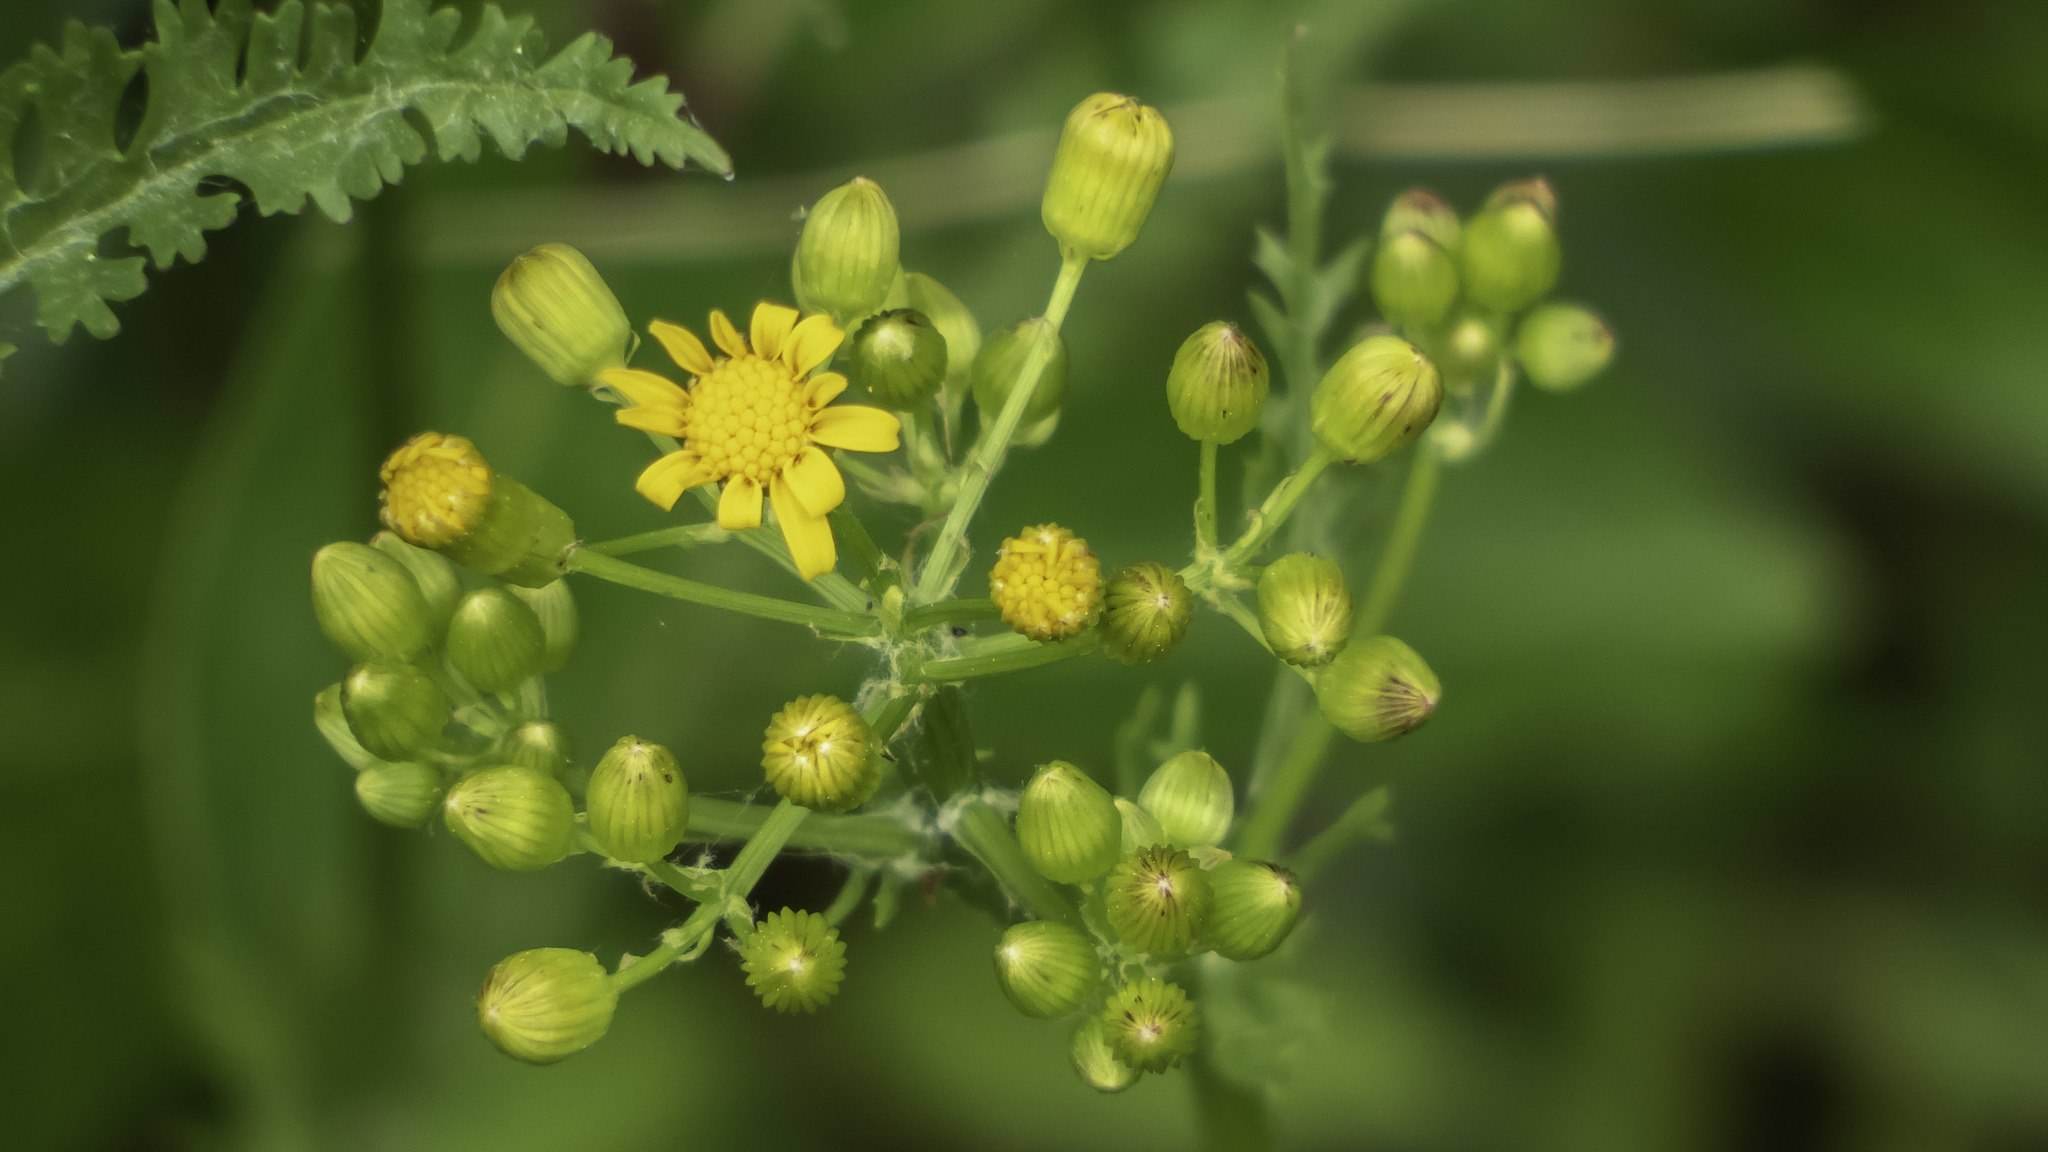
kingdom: Plantae
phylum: Tracheophyta
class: Magnoliopsida
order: Asterales
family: Asteraceae
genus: Packera
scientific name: Packera anonyma
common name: Small ragwort
